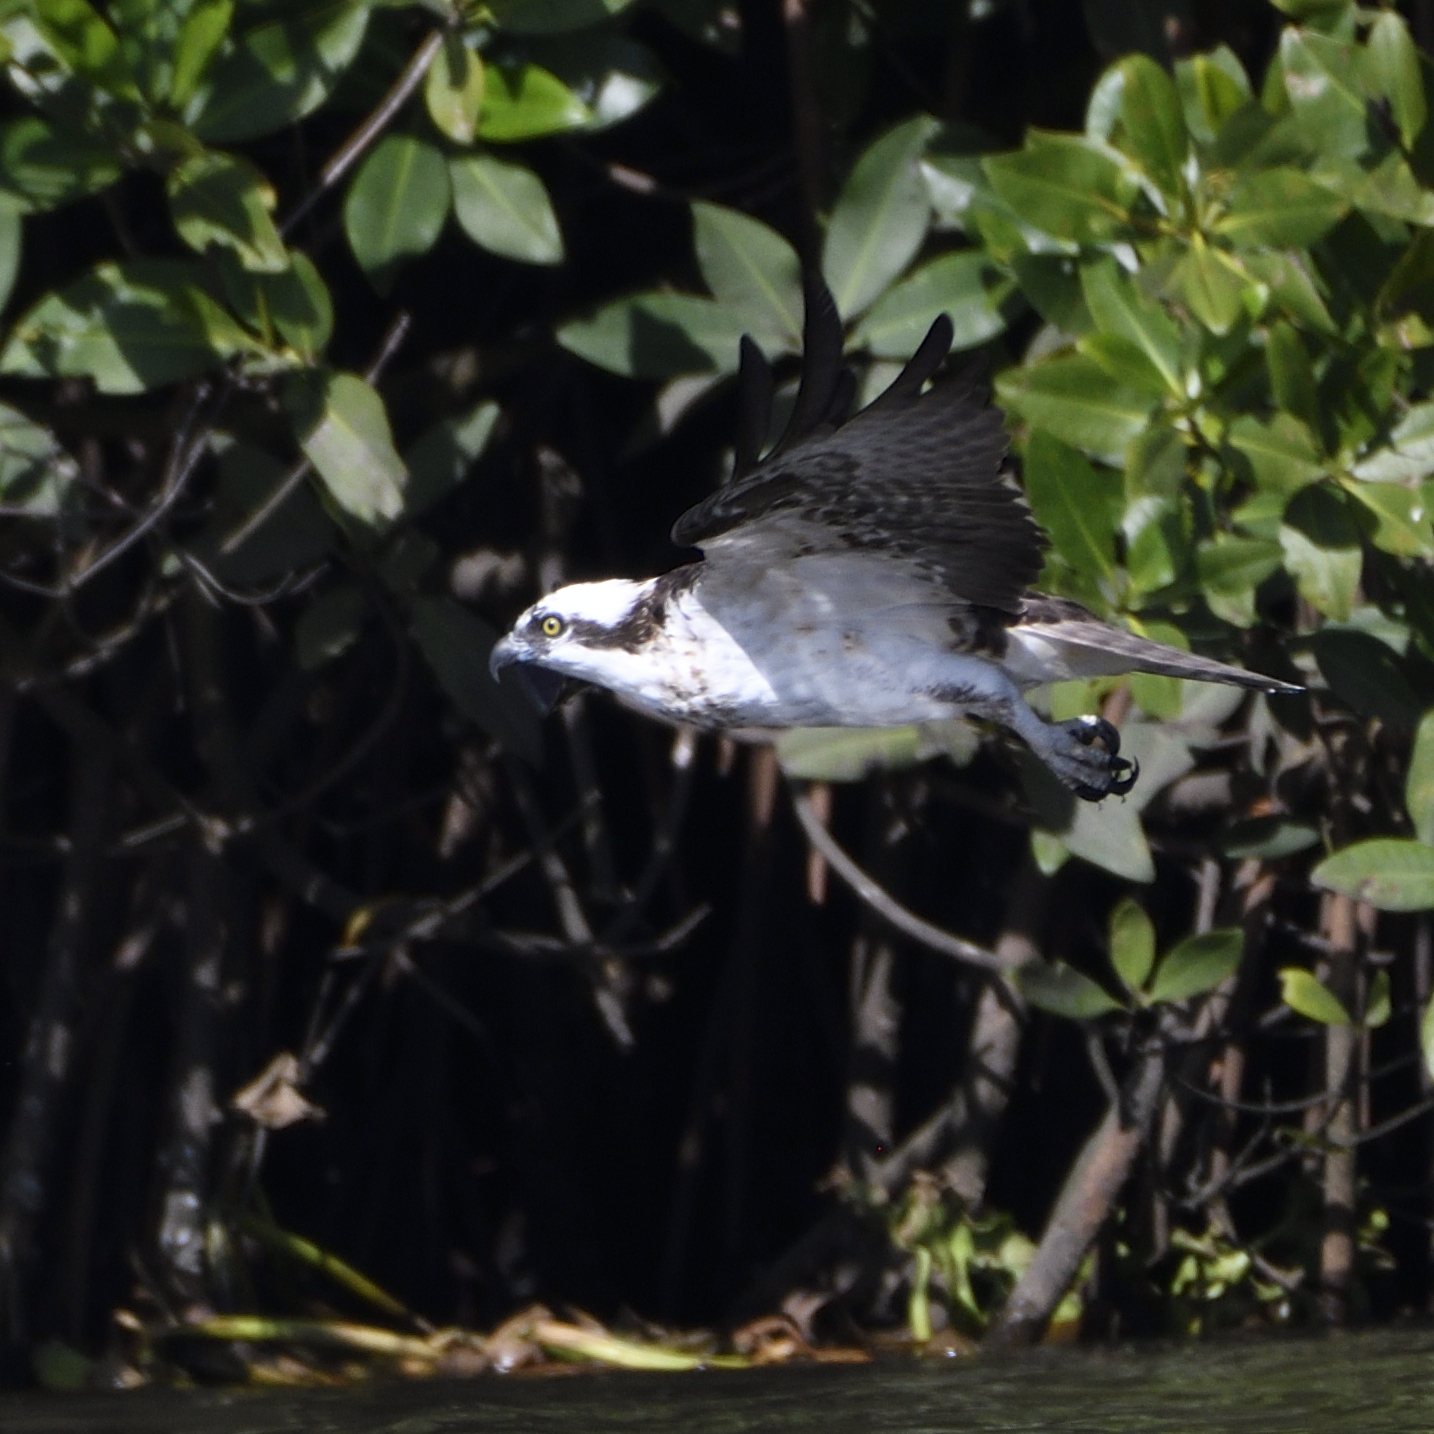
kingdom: Animalia
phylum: Chordata
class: Aves
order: Accipitriformes
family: Pandionidae
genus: Pandion
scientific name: Pandion haliaetus
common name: Osprey
